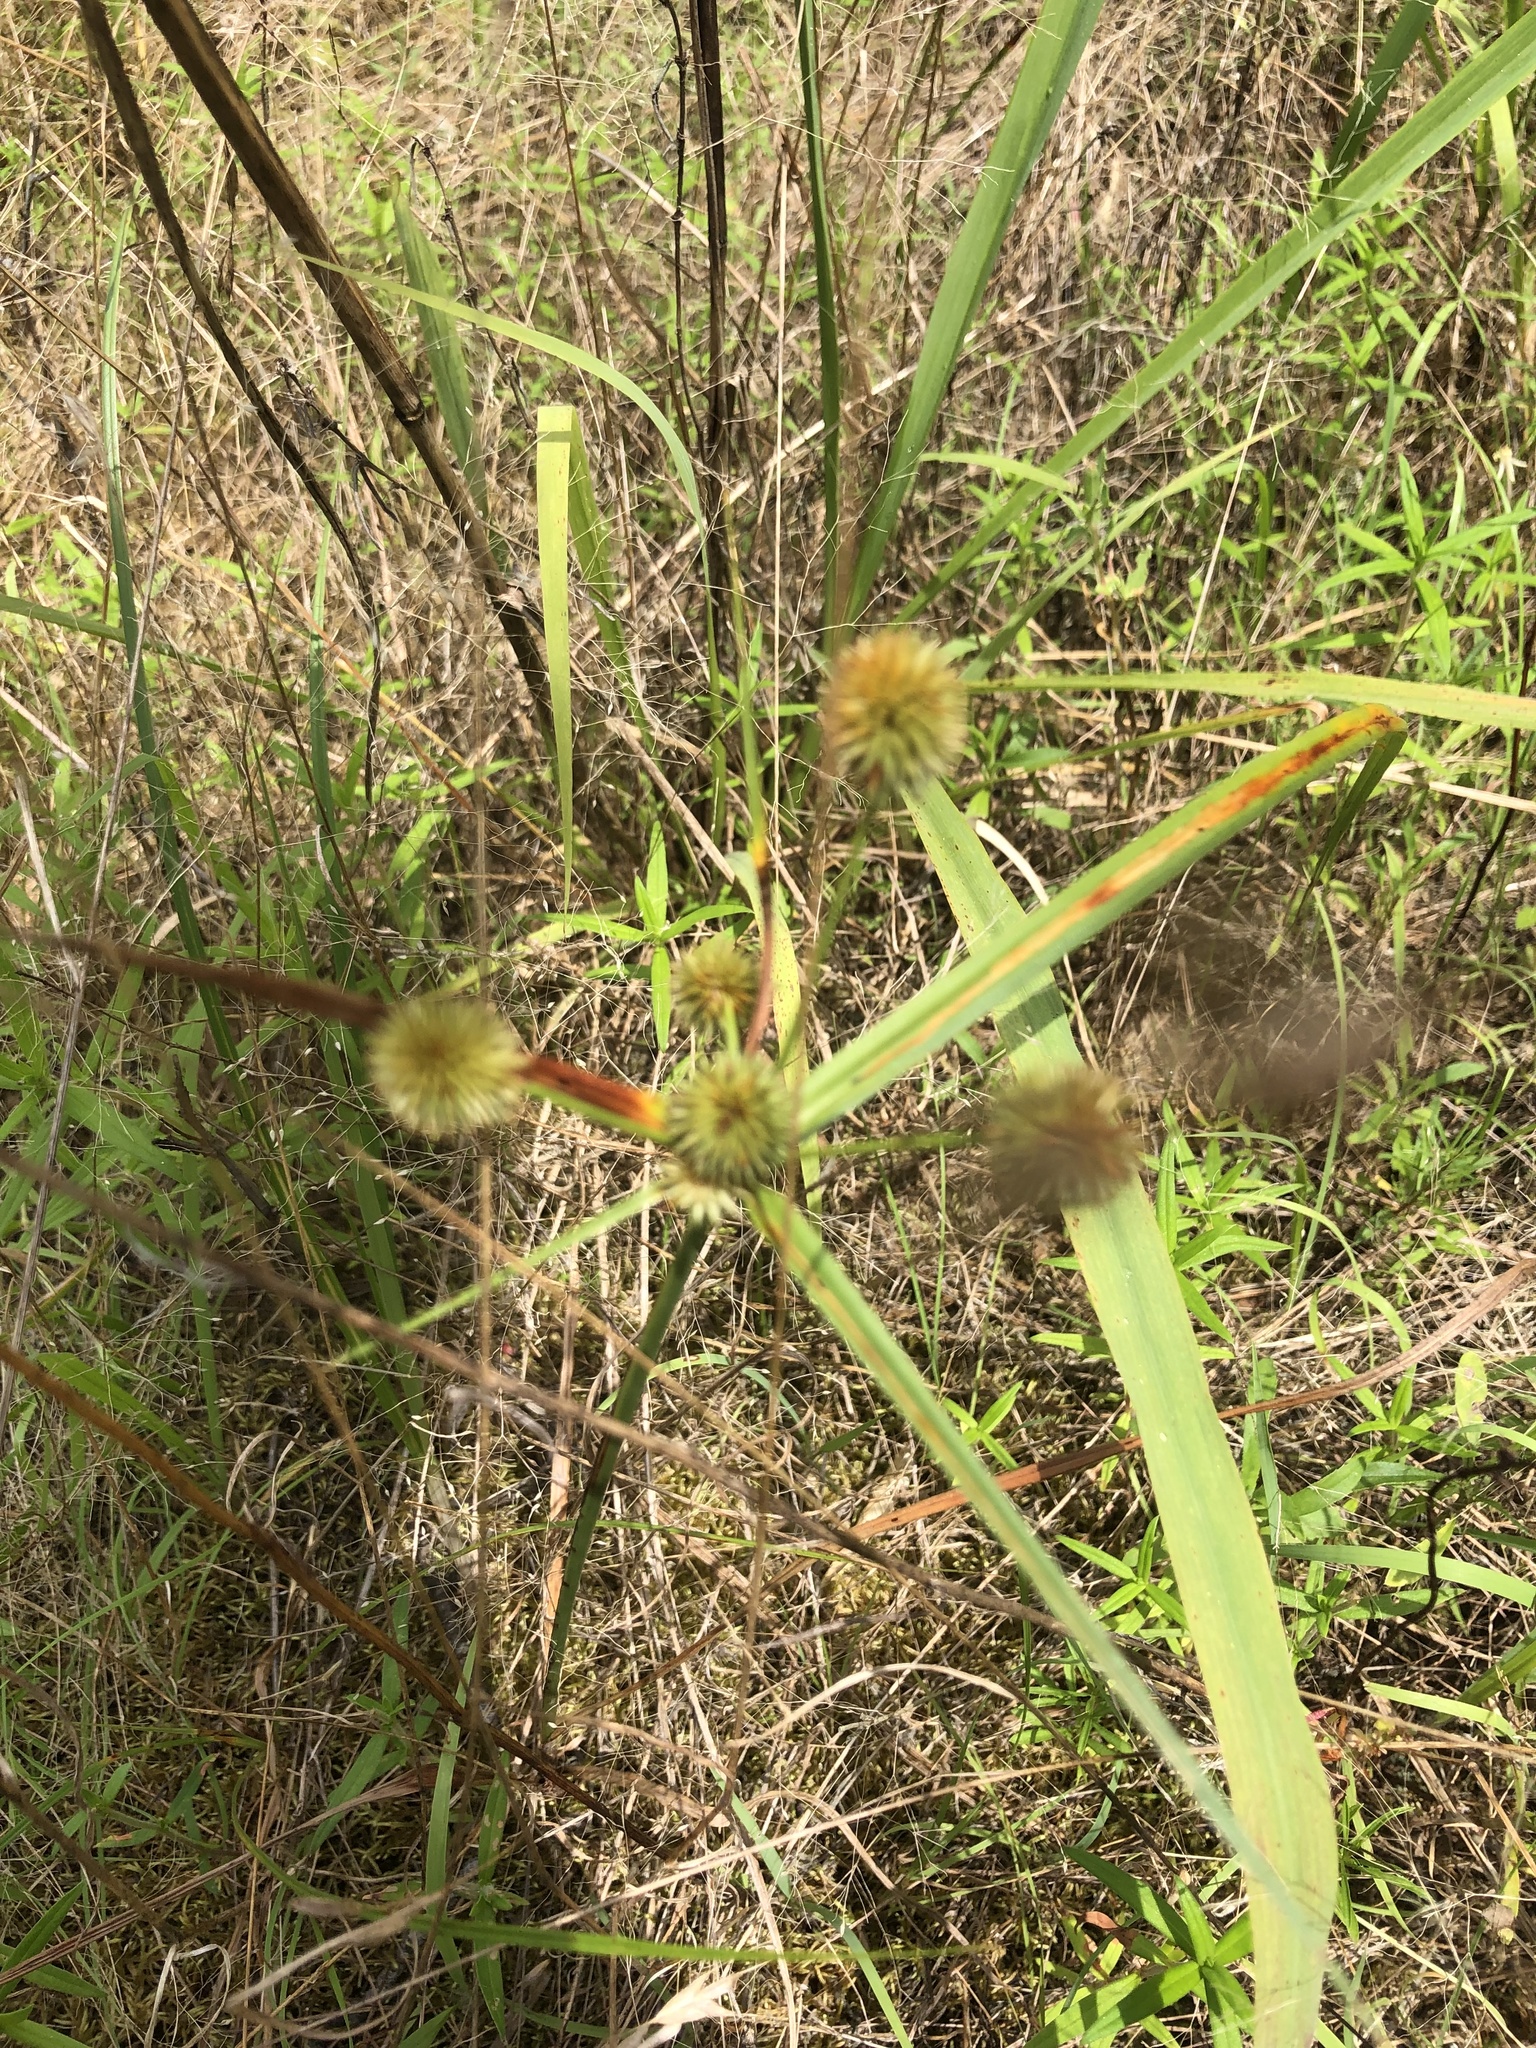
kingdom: Plantae
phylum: Tracheophyta
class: Liliopsida
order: Poales
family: Cyperaceae
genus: Cyperus
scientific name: Cyperus echinatus
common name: Teasel sedge
